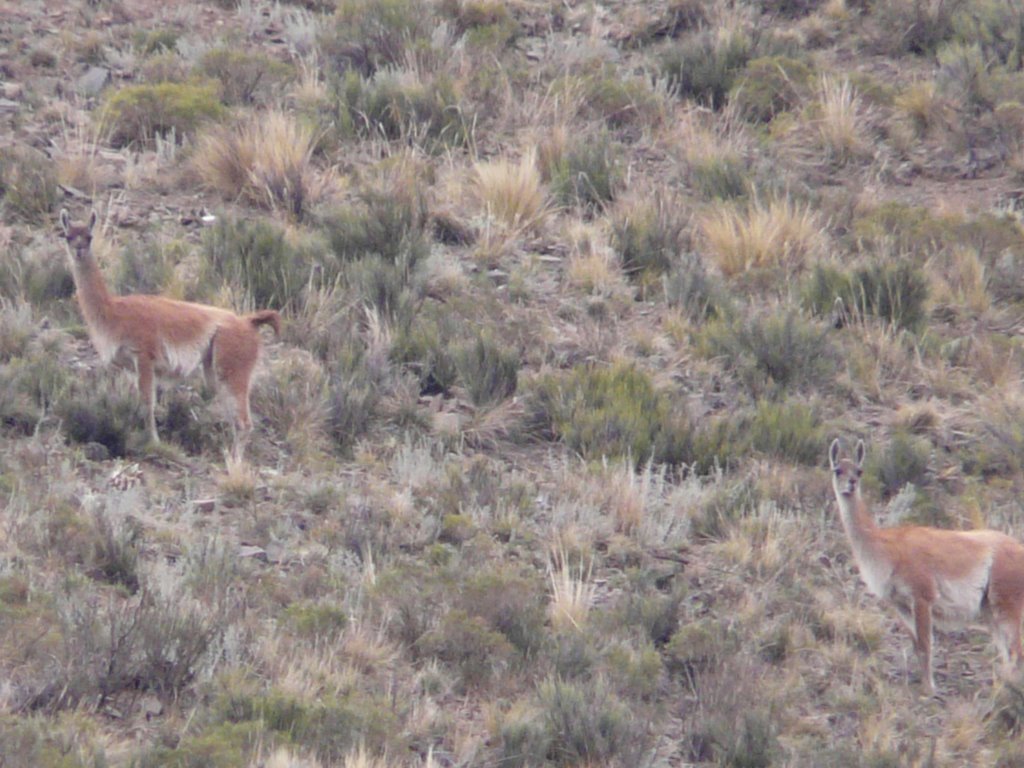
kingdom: Animalia
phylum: Chordata
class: Mammalia
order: Artiodactyla
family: Camelidae
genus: Lama
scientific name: Lama glama
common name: Llama
